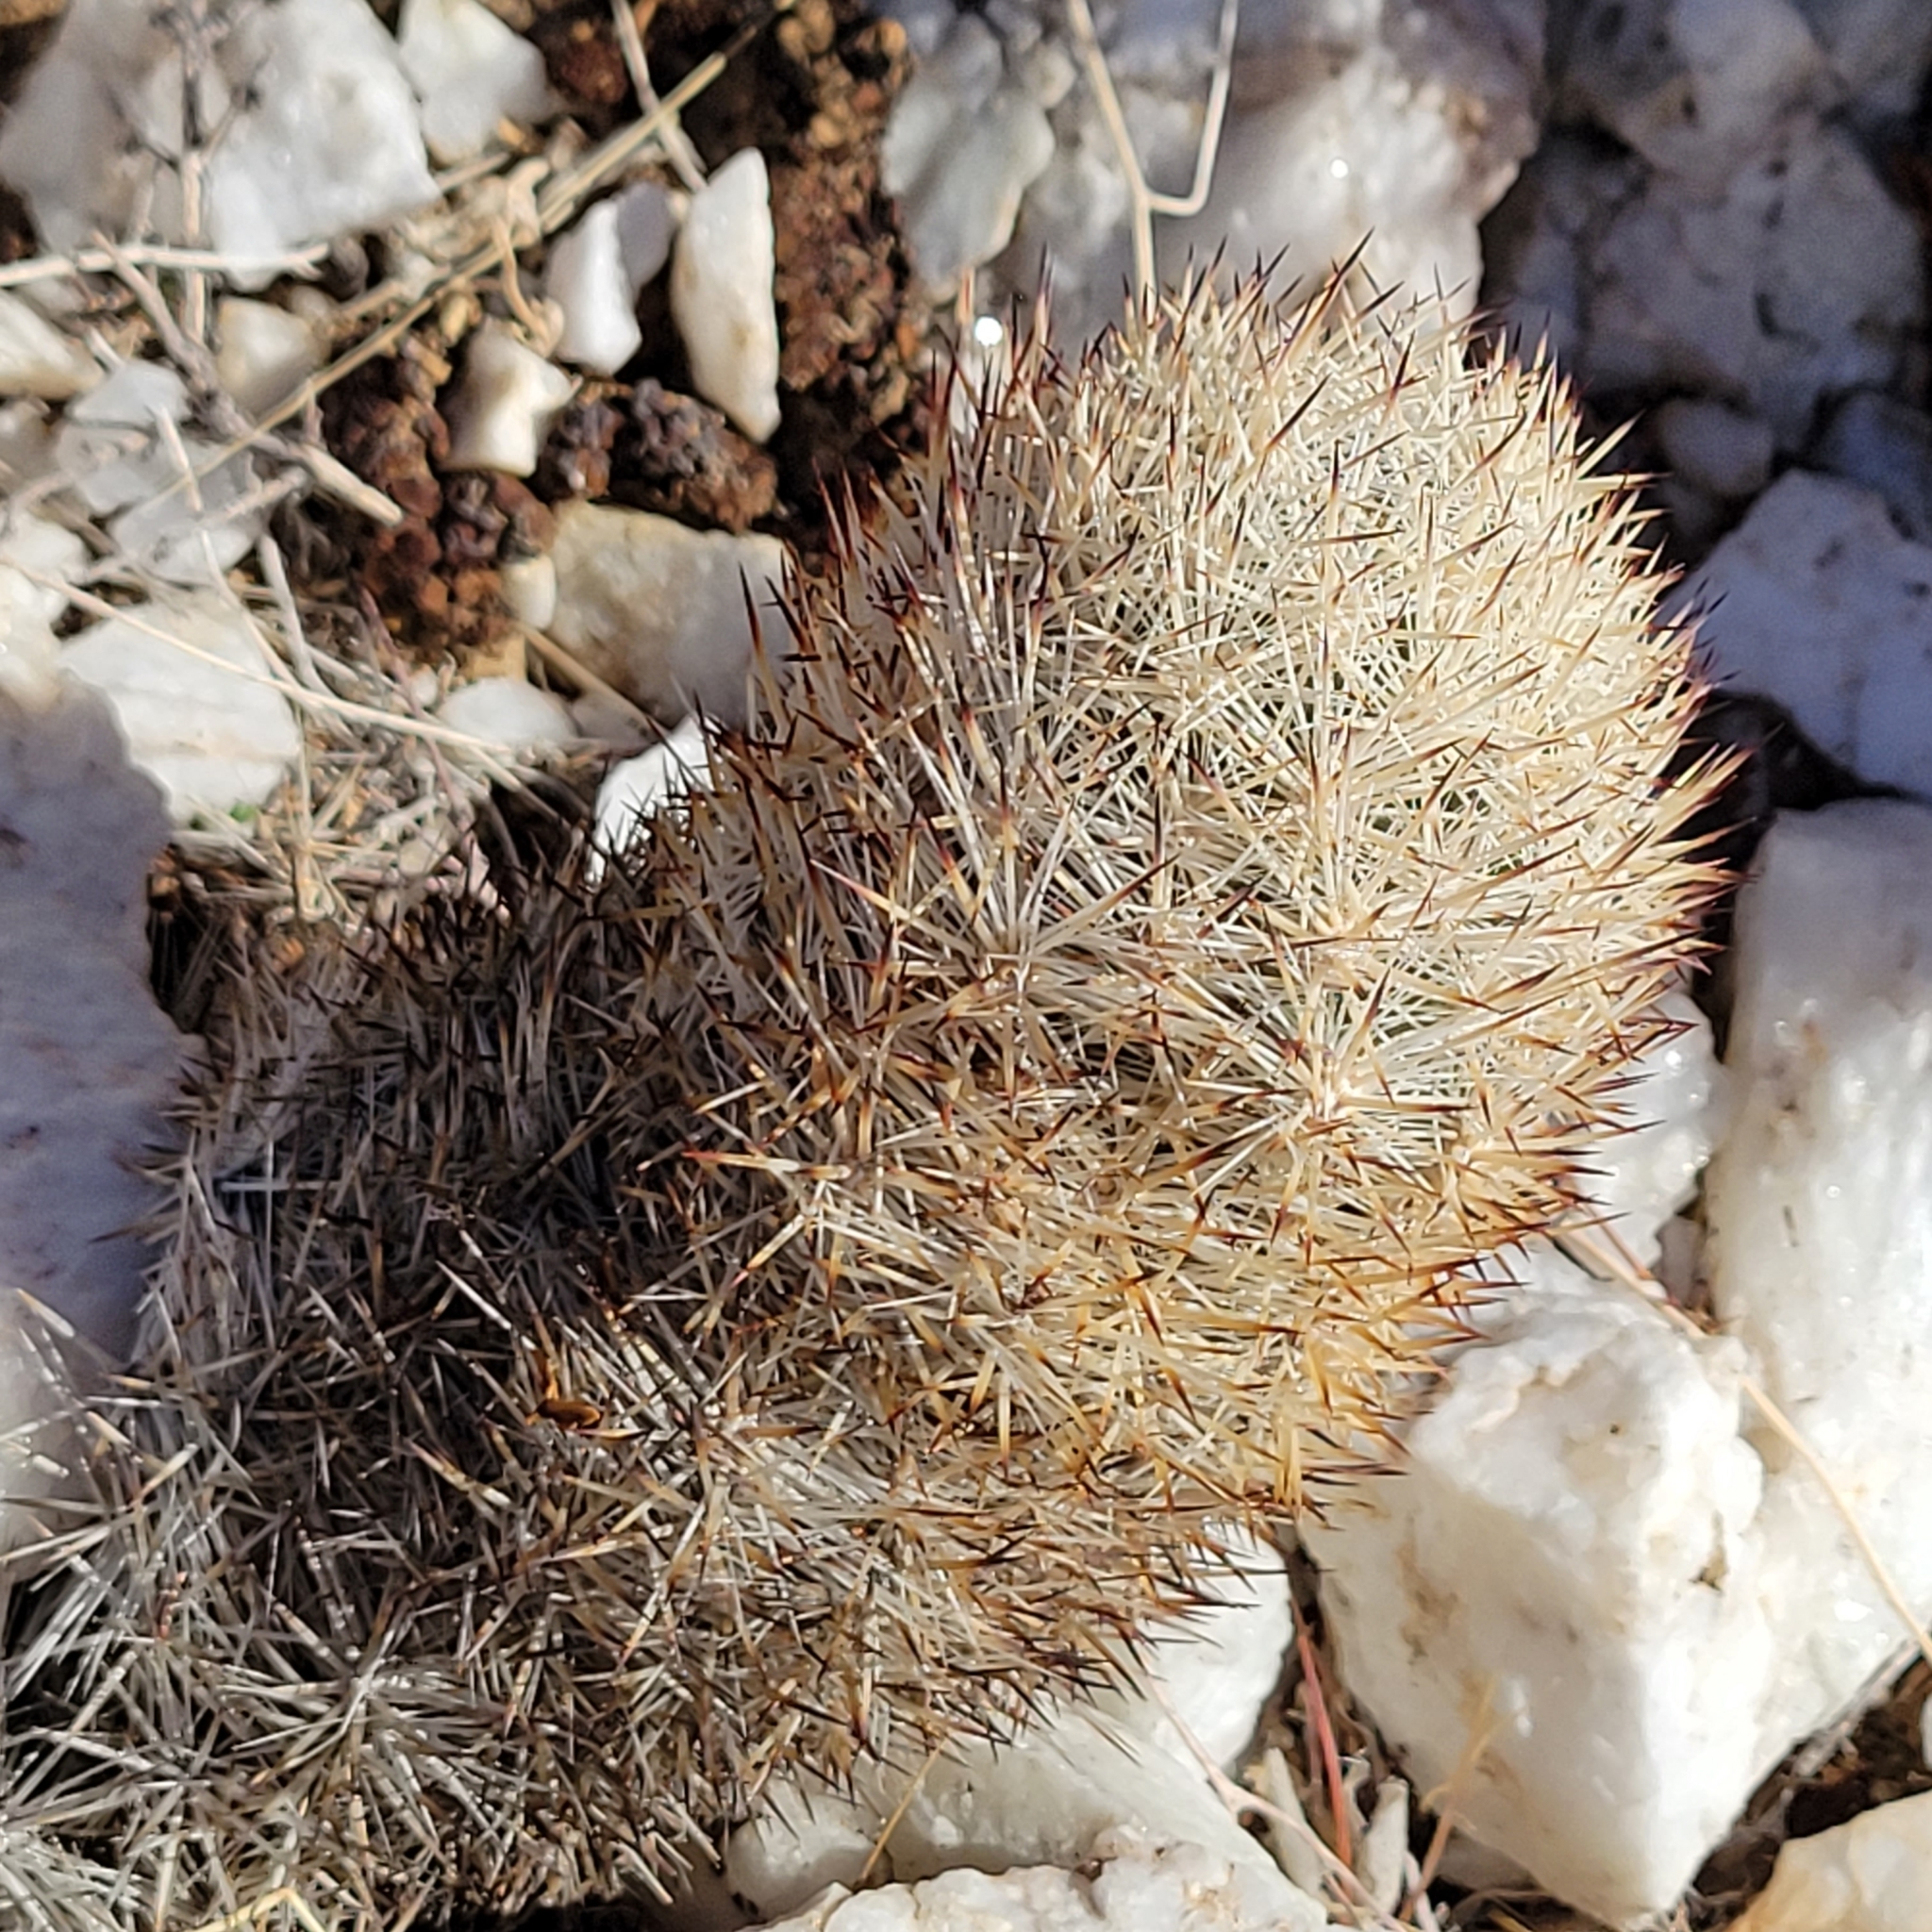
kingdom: Plantae
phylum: Tracheophyta
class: Magnoliopsida
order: Caryophyllales
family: Cactaceae
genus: Pelecyphora
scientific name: Pelecyphora alversonii
